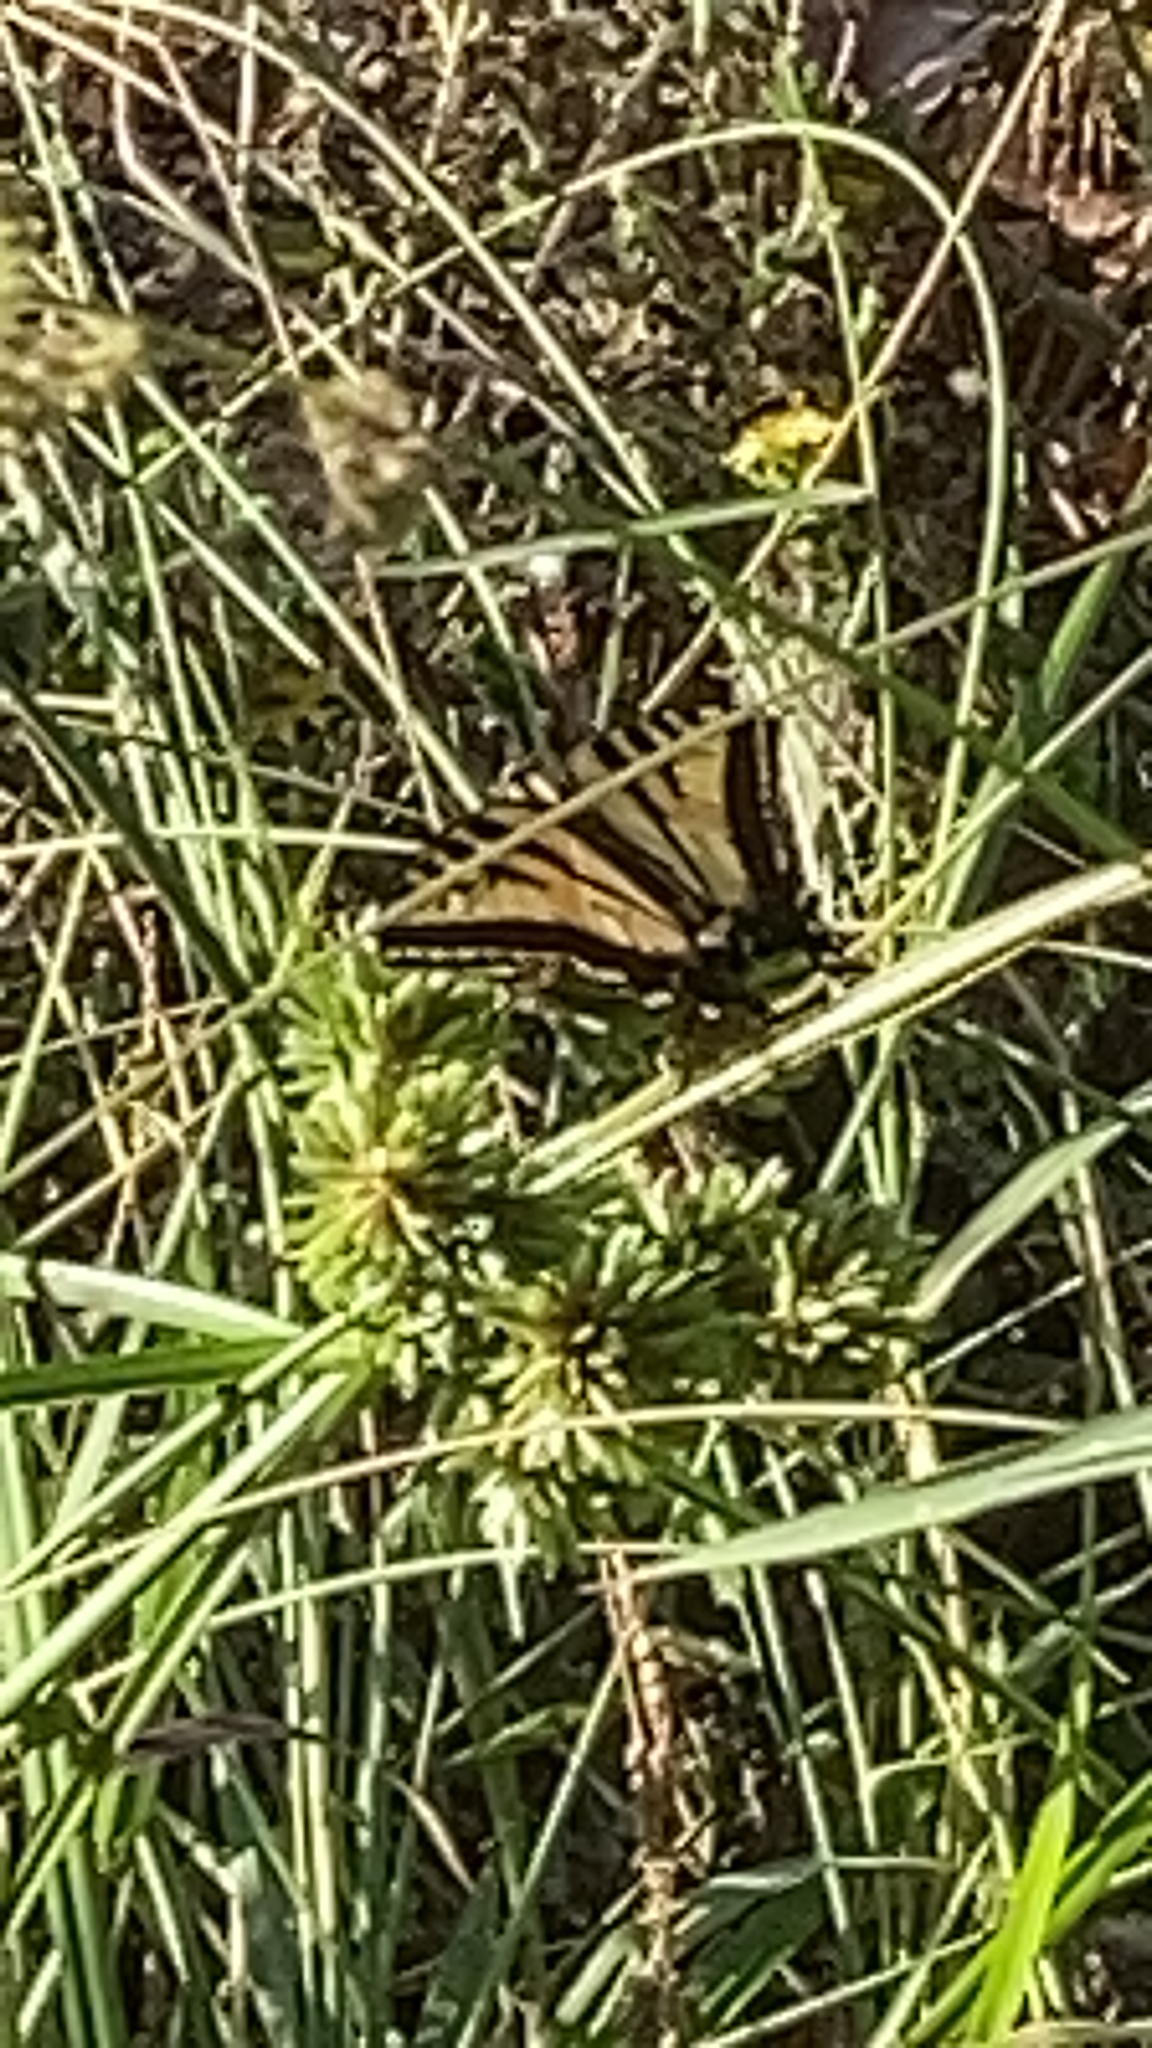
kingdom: Animalia
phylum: Arthropoda
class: Insecta
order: Lepidoptera
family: Papilionidae
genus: Papilio
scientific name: Papilio rutulus
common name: Western tiger swallowtail
